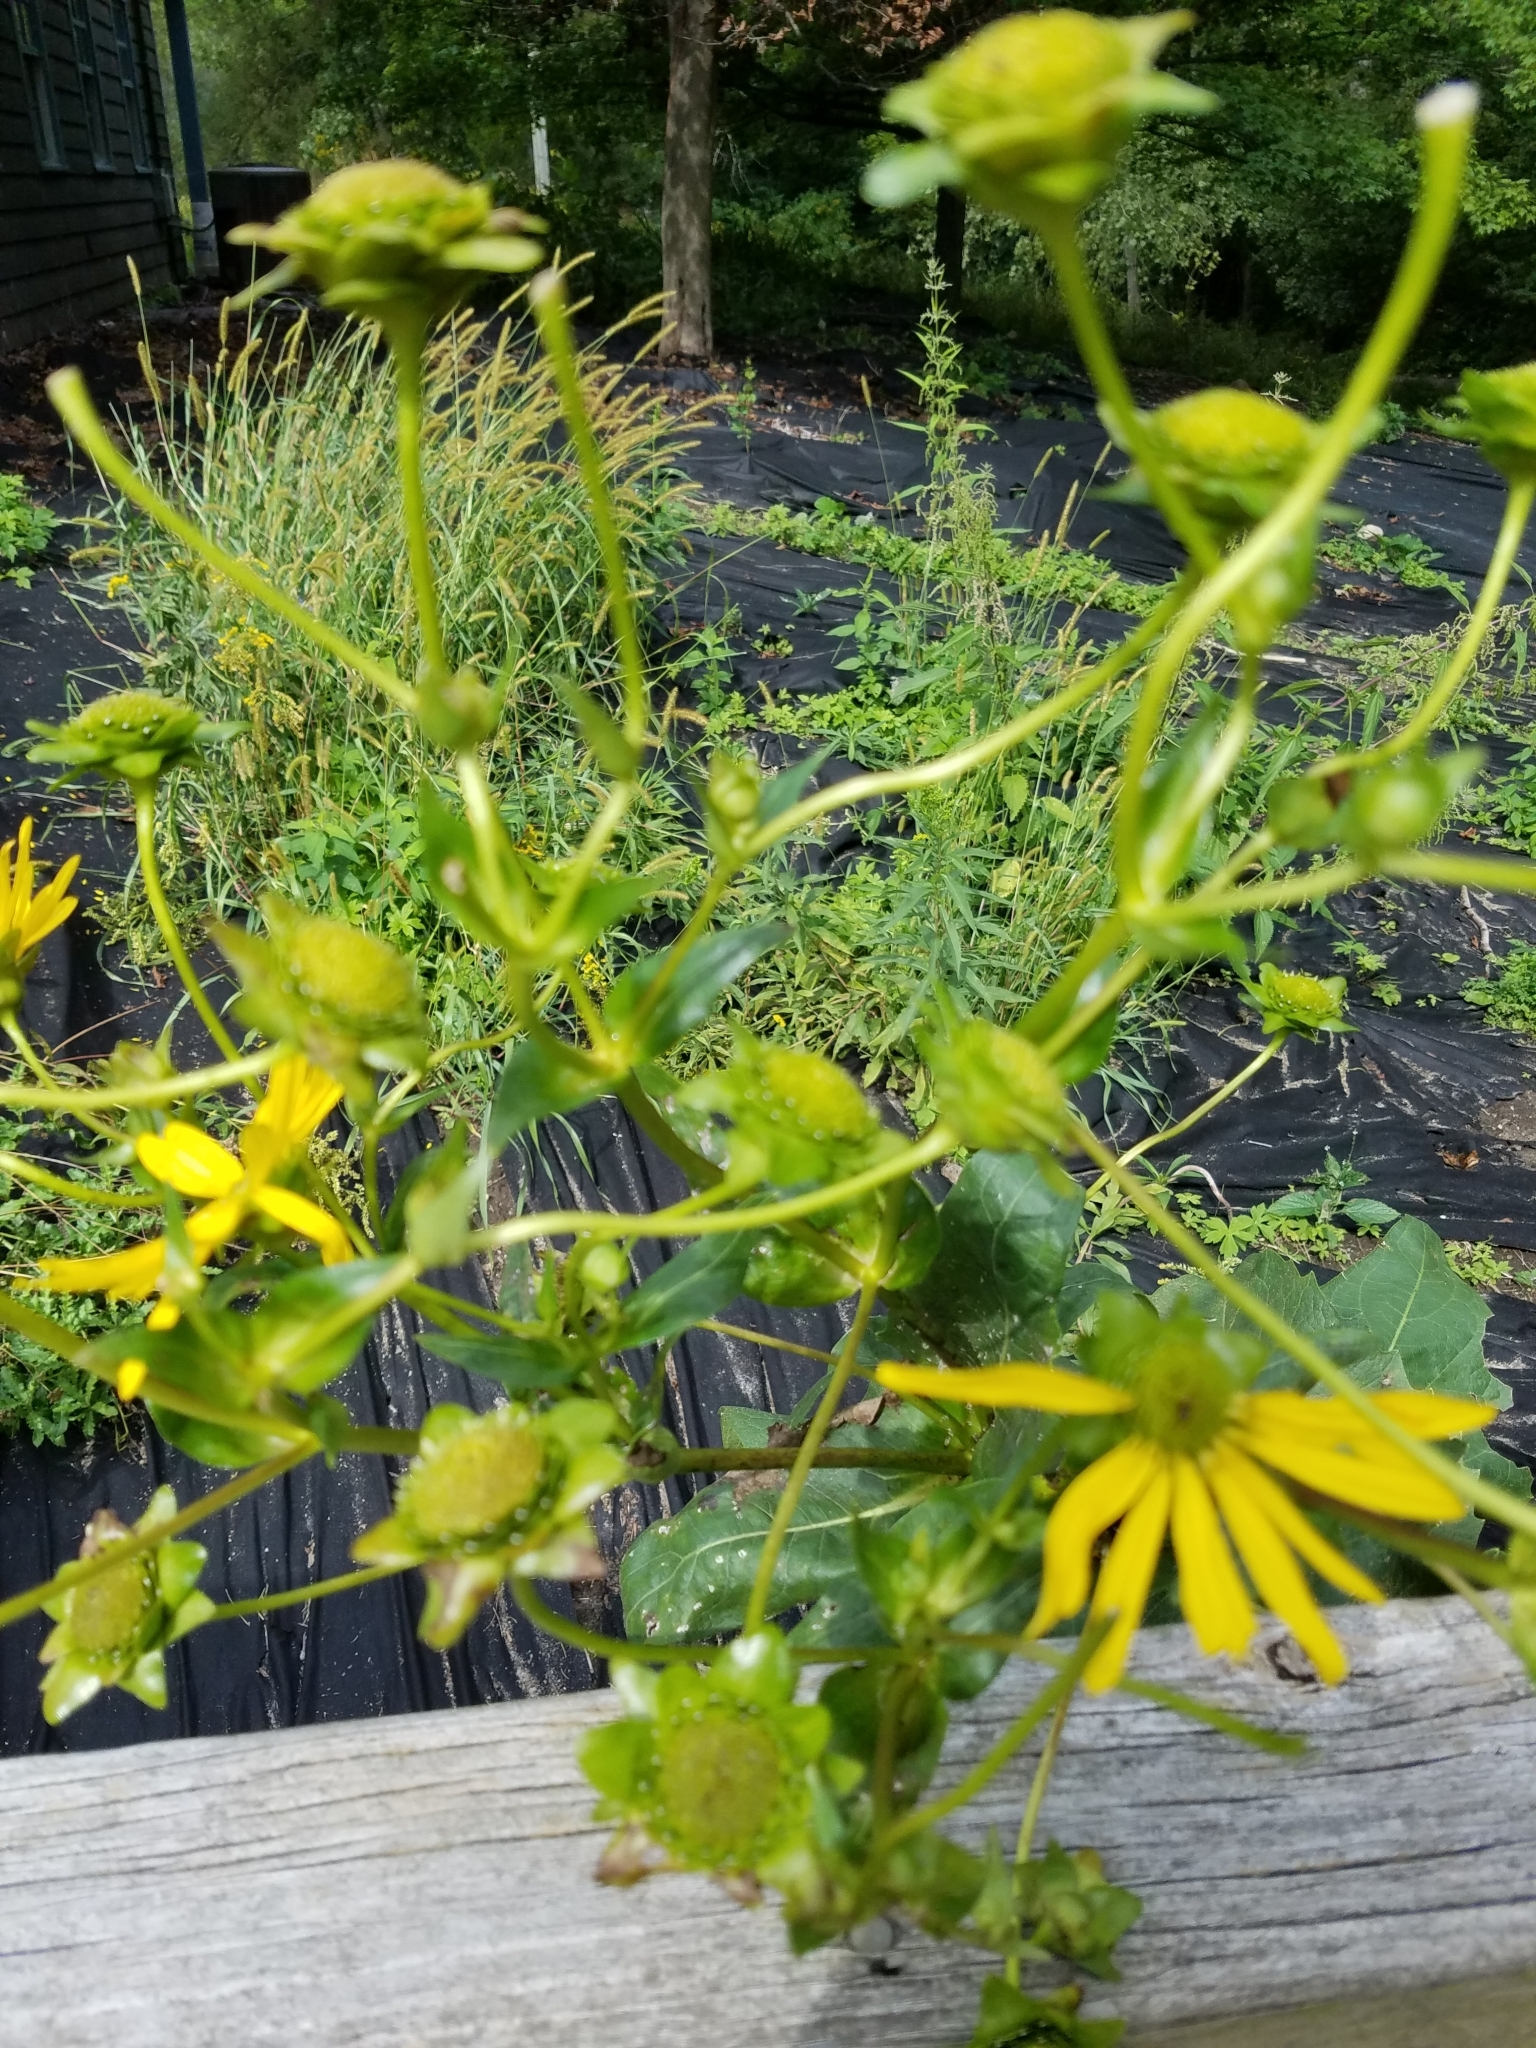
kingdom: Plantae
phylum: Tracheophyta
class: Magnoliopsida
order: Asterales
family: Asteraceae
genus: Silphium
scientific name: Silphium perfoliatum
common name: Cup-plant
